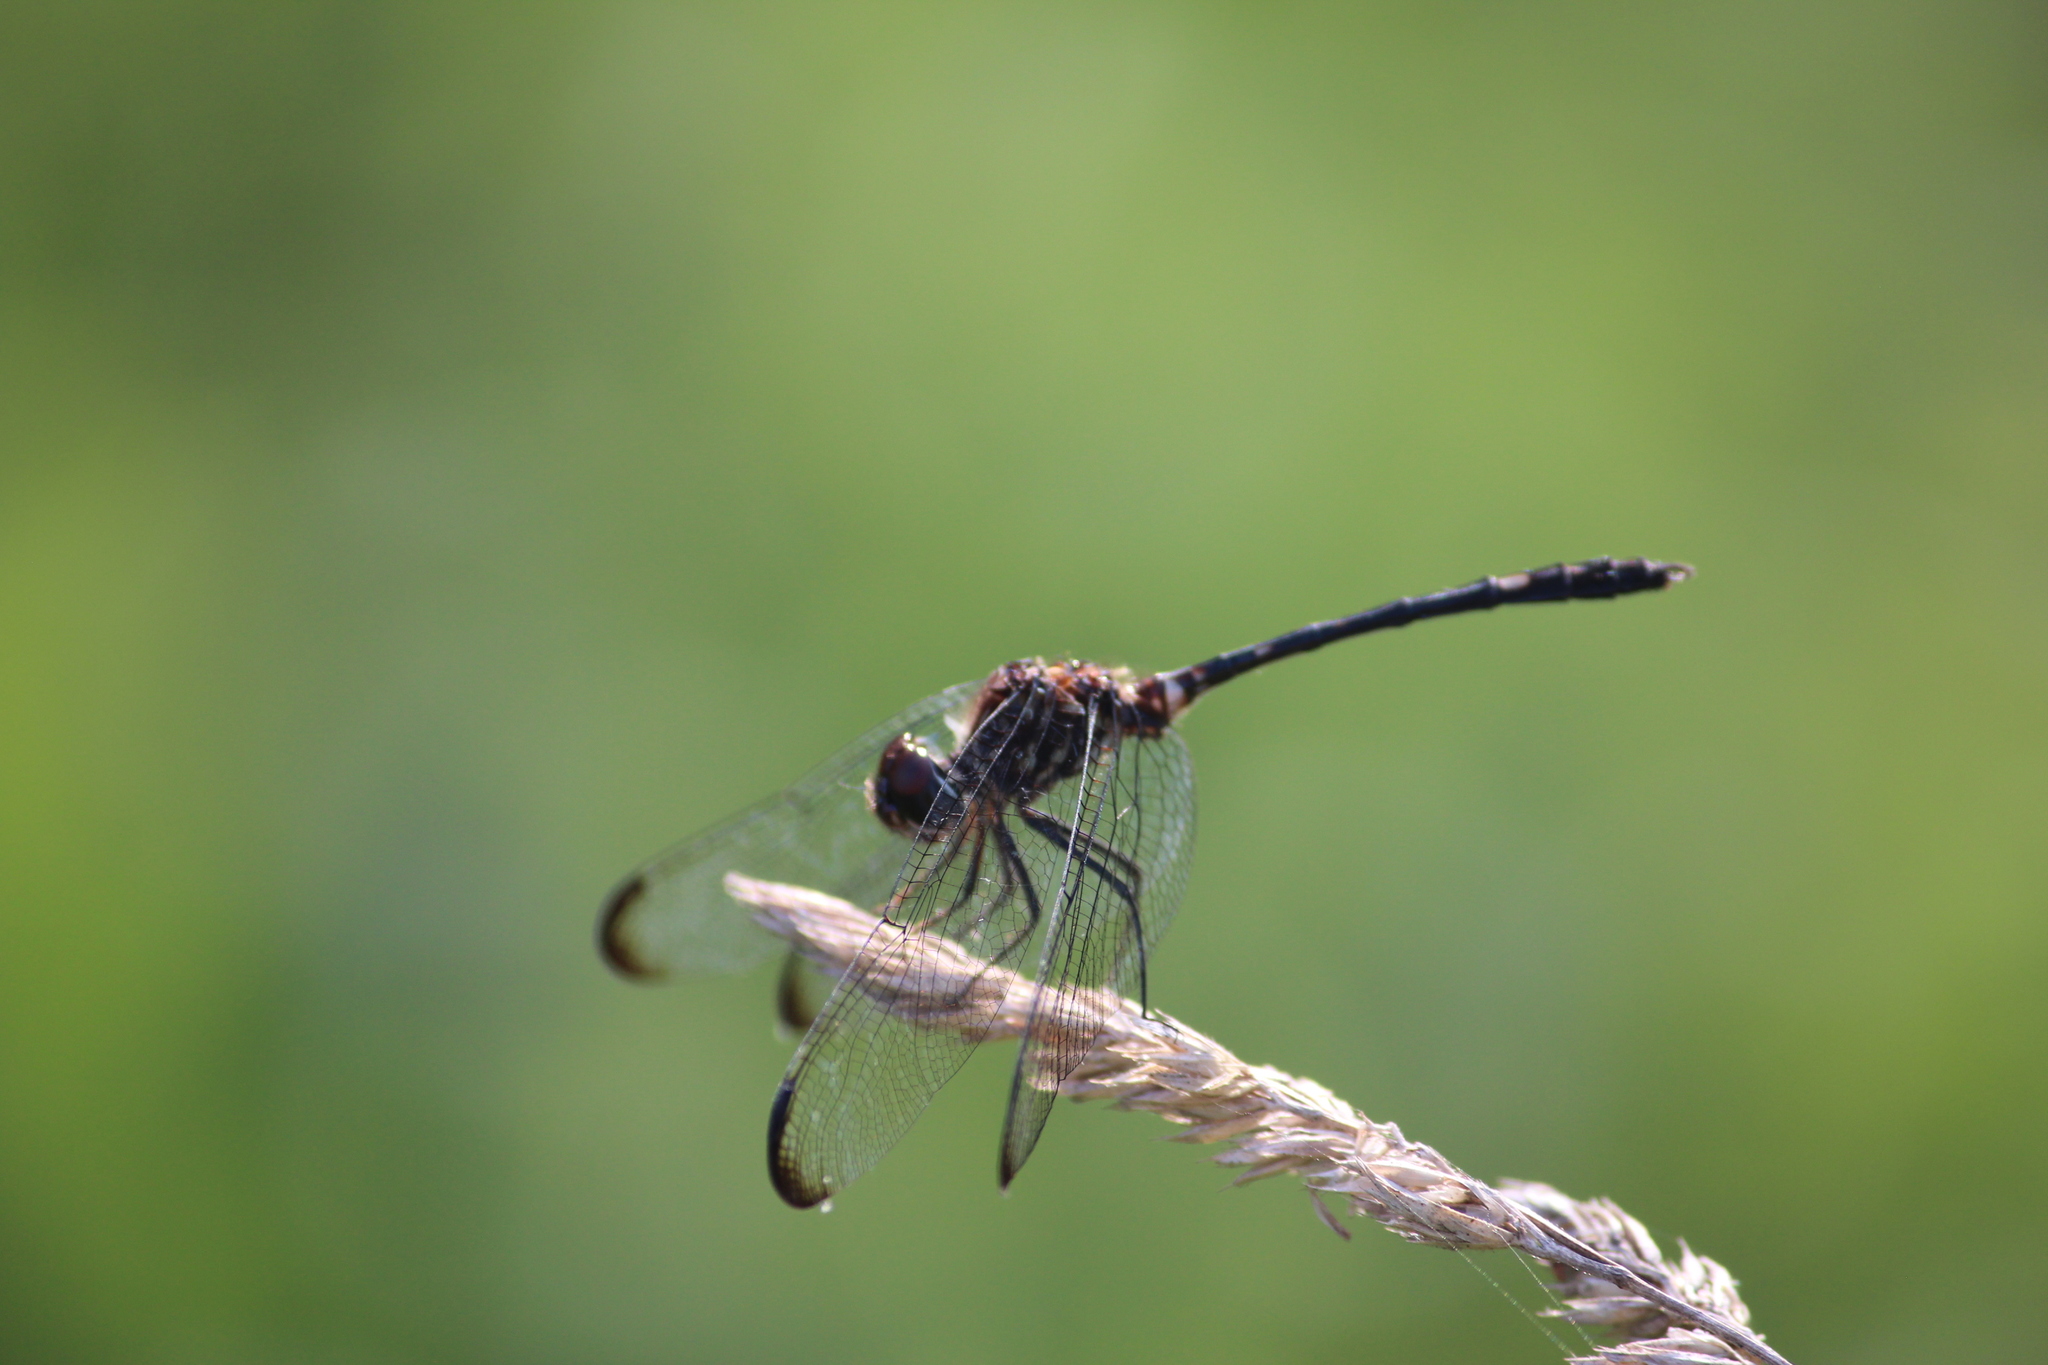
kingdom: Animalia
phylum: Arthropoda
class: Insecta
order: Odonata
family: Libellulidae
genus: Dythemis
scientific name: Dythemis velox
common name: Swift setwing
